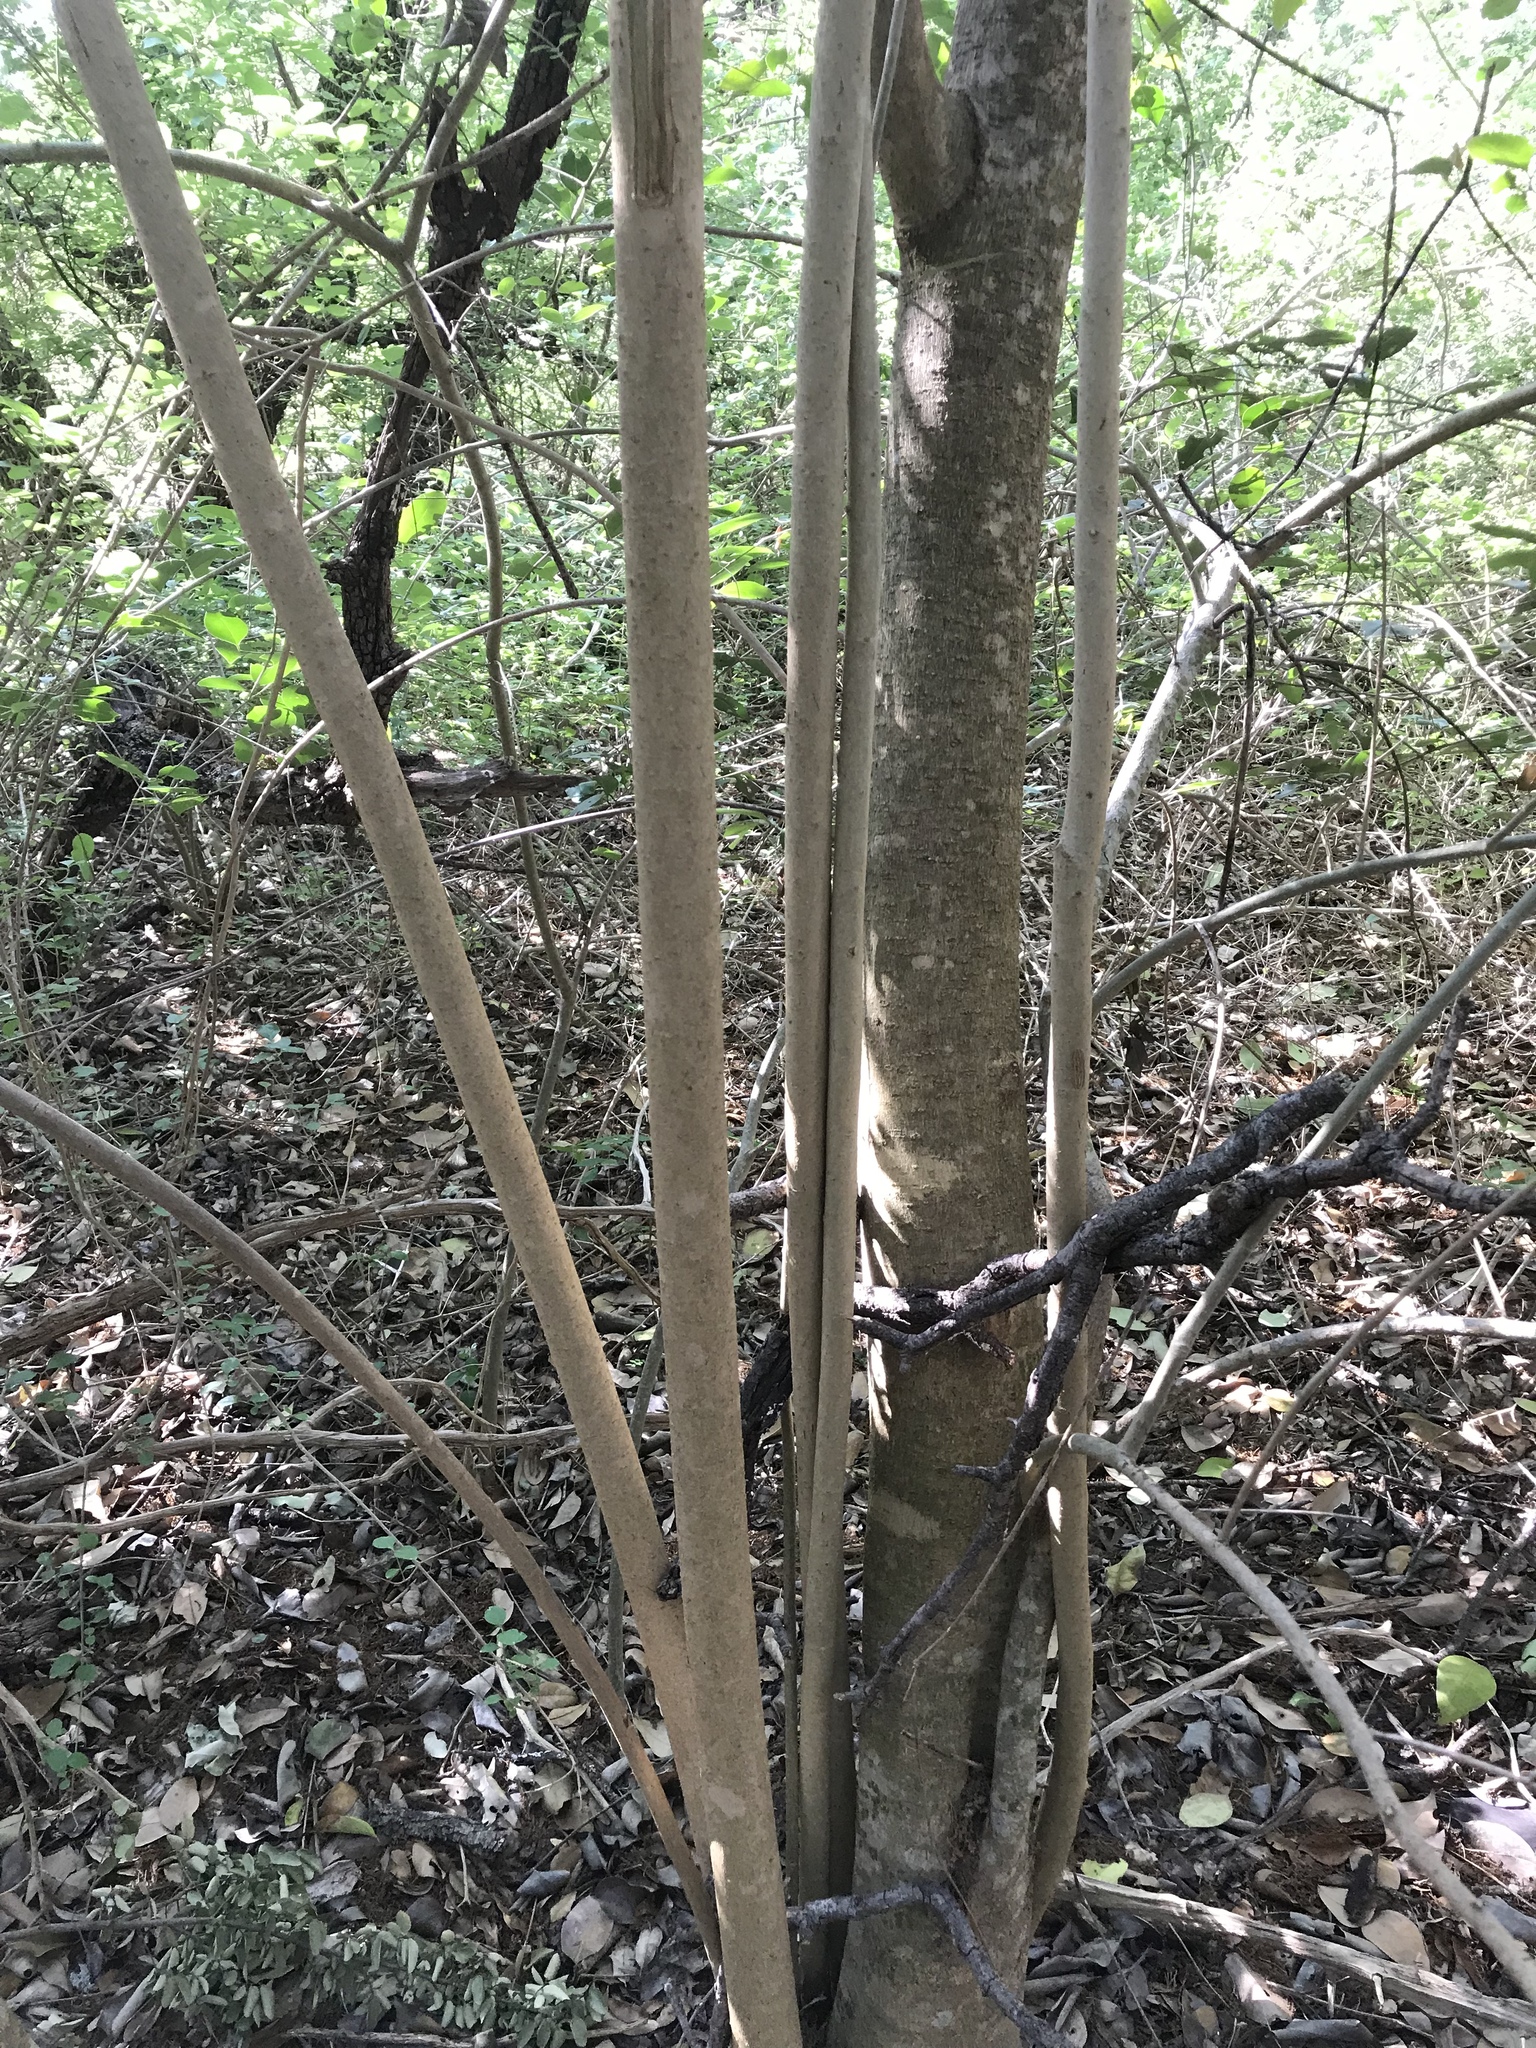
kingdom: Plantae
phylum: Tracheophyta
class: Magnoliopsida
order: Lamiales
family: Oleaceae
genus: Ligustrum
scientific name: Ligustrum lucidum
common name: Glossy privet
